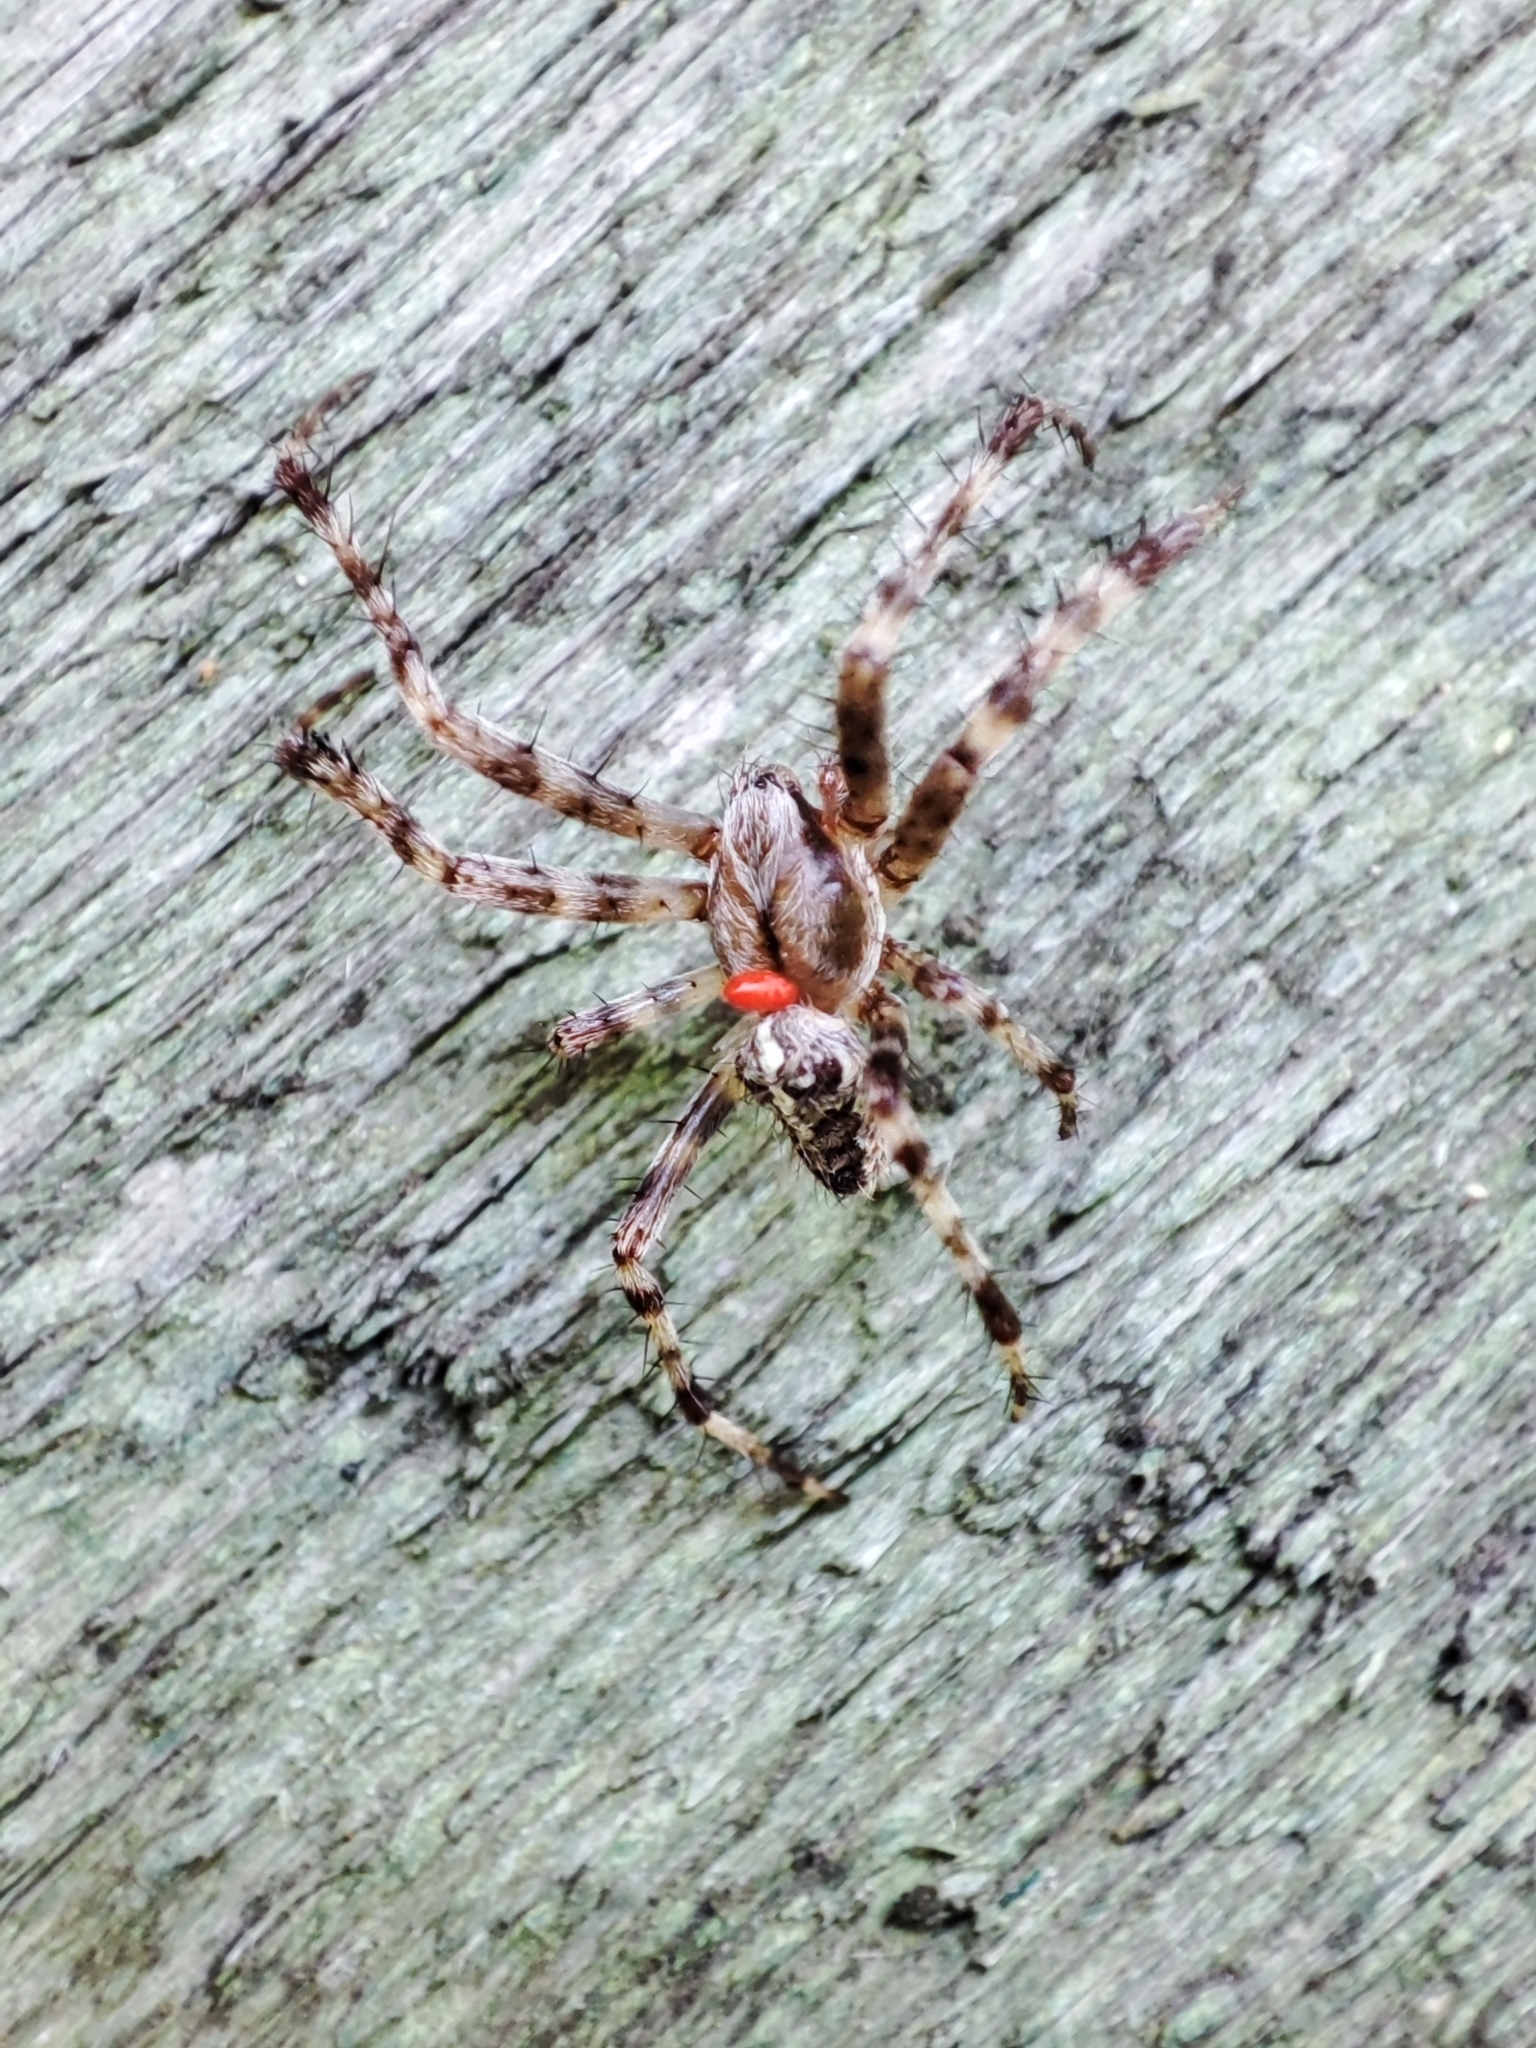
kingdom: Animalia
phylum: Arthropoda
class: Arachnida
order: Araneae
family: Araneidae
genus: Araneus
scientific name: Araneus diadematus
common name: Cross orbweaver
